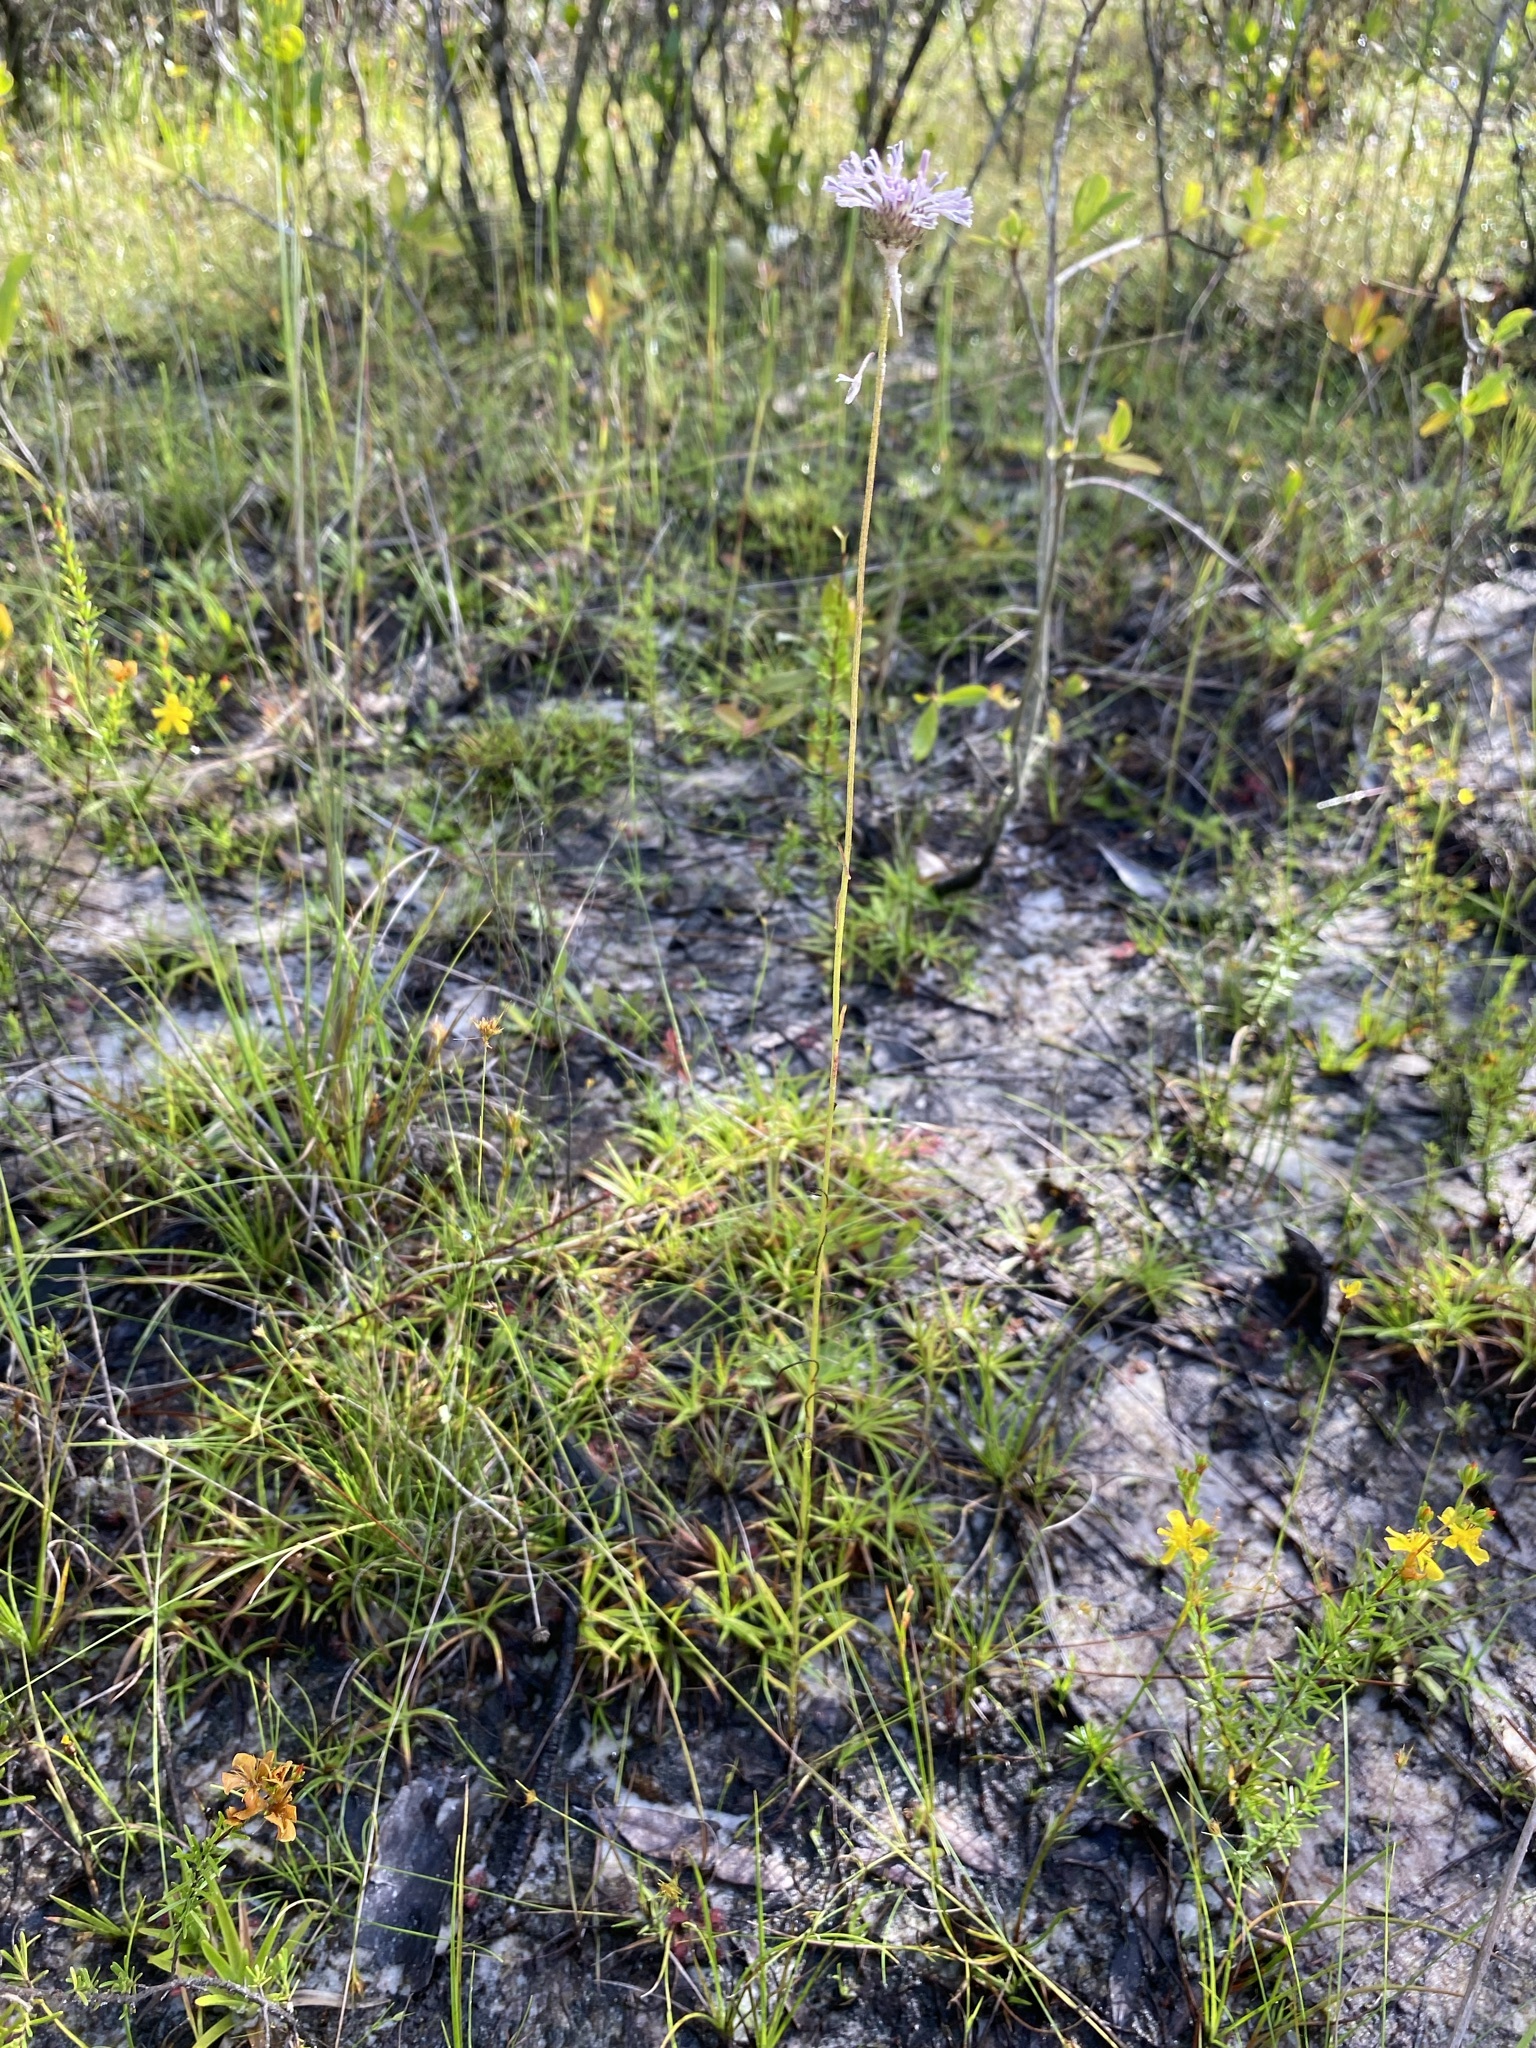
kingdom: Plantae
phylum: Tracheophyta
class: Magnoliopsida
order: Asterales
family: Asteraceae
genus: Marshallia
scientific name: Marshallia graminifolia
